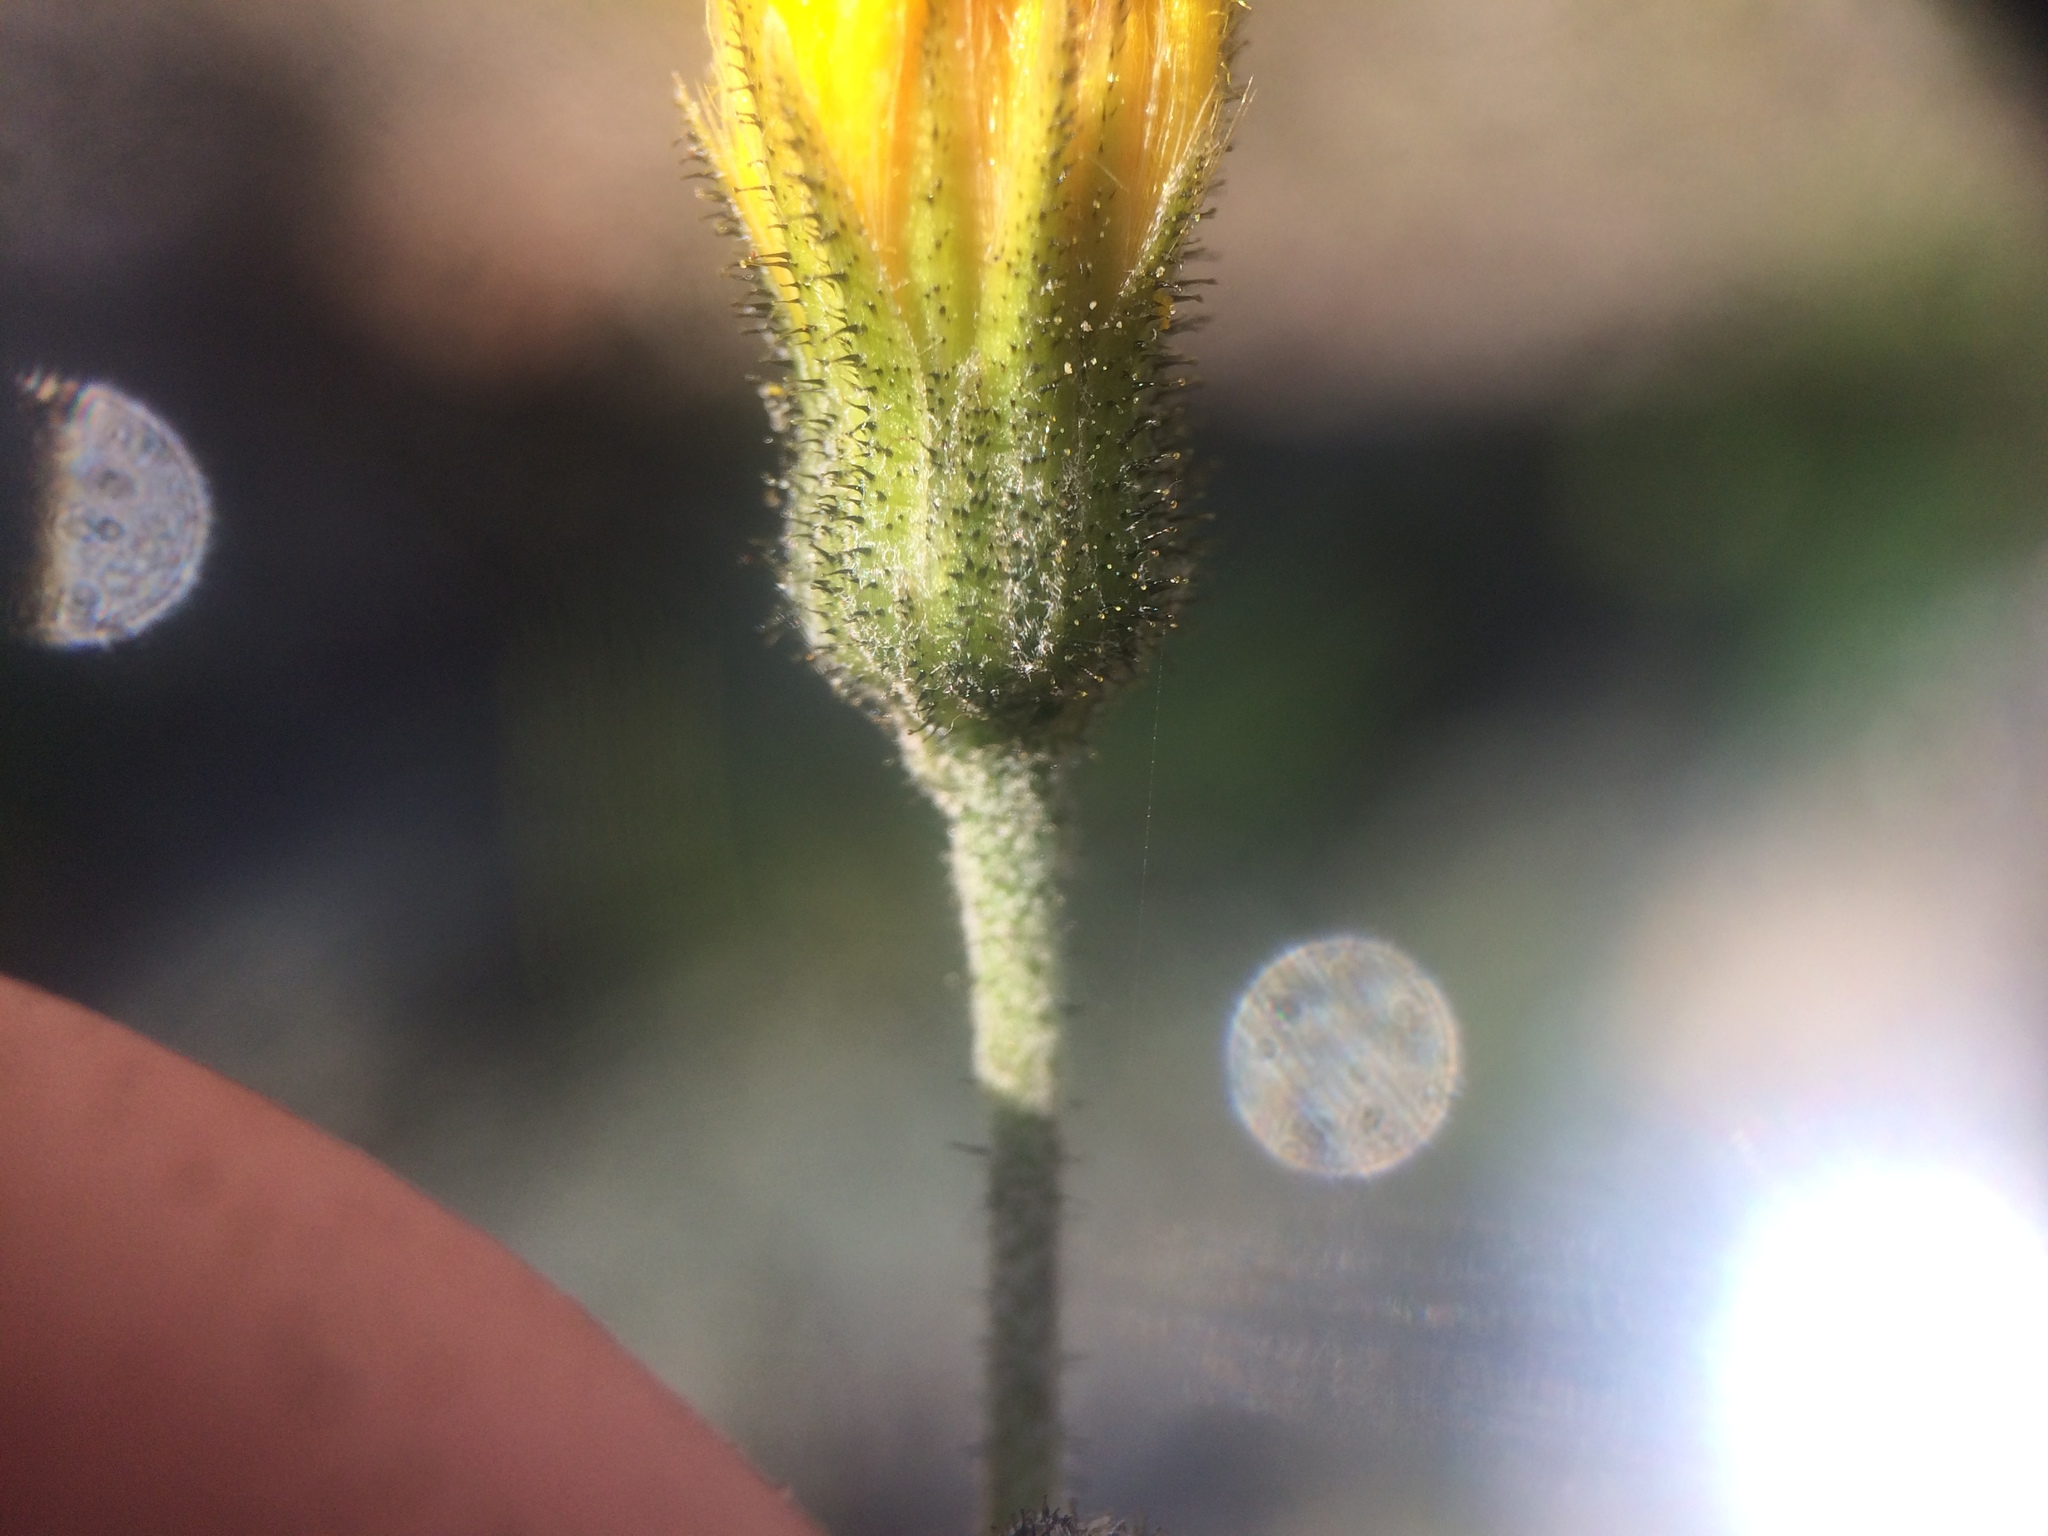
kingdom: Plantae
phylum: Tracheophyta
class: Magnoliopsida
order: Asterales
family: Asteraceae
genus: Hieracium
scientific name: Hieracium maculatum
